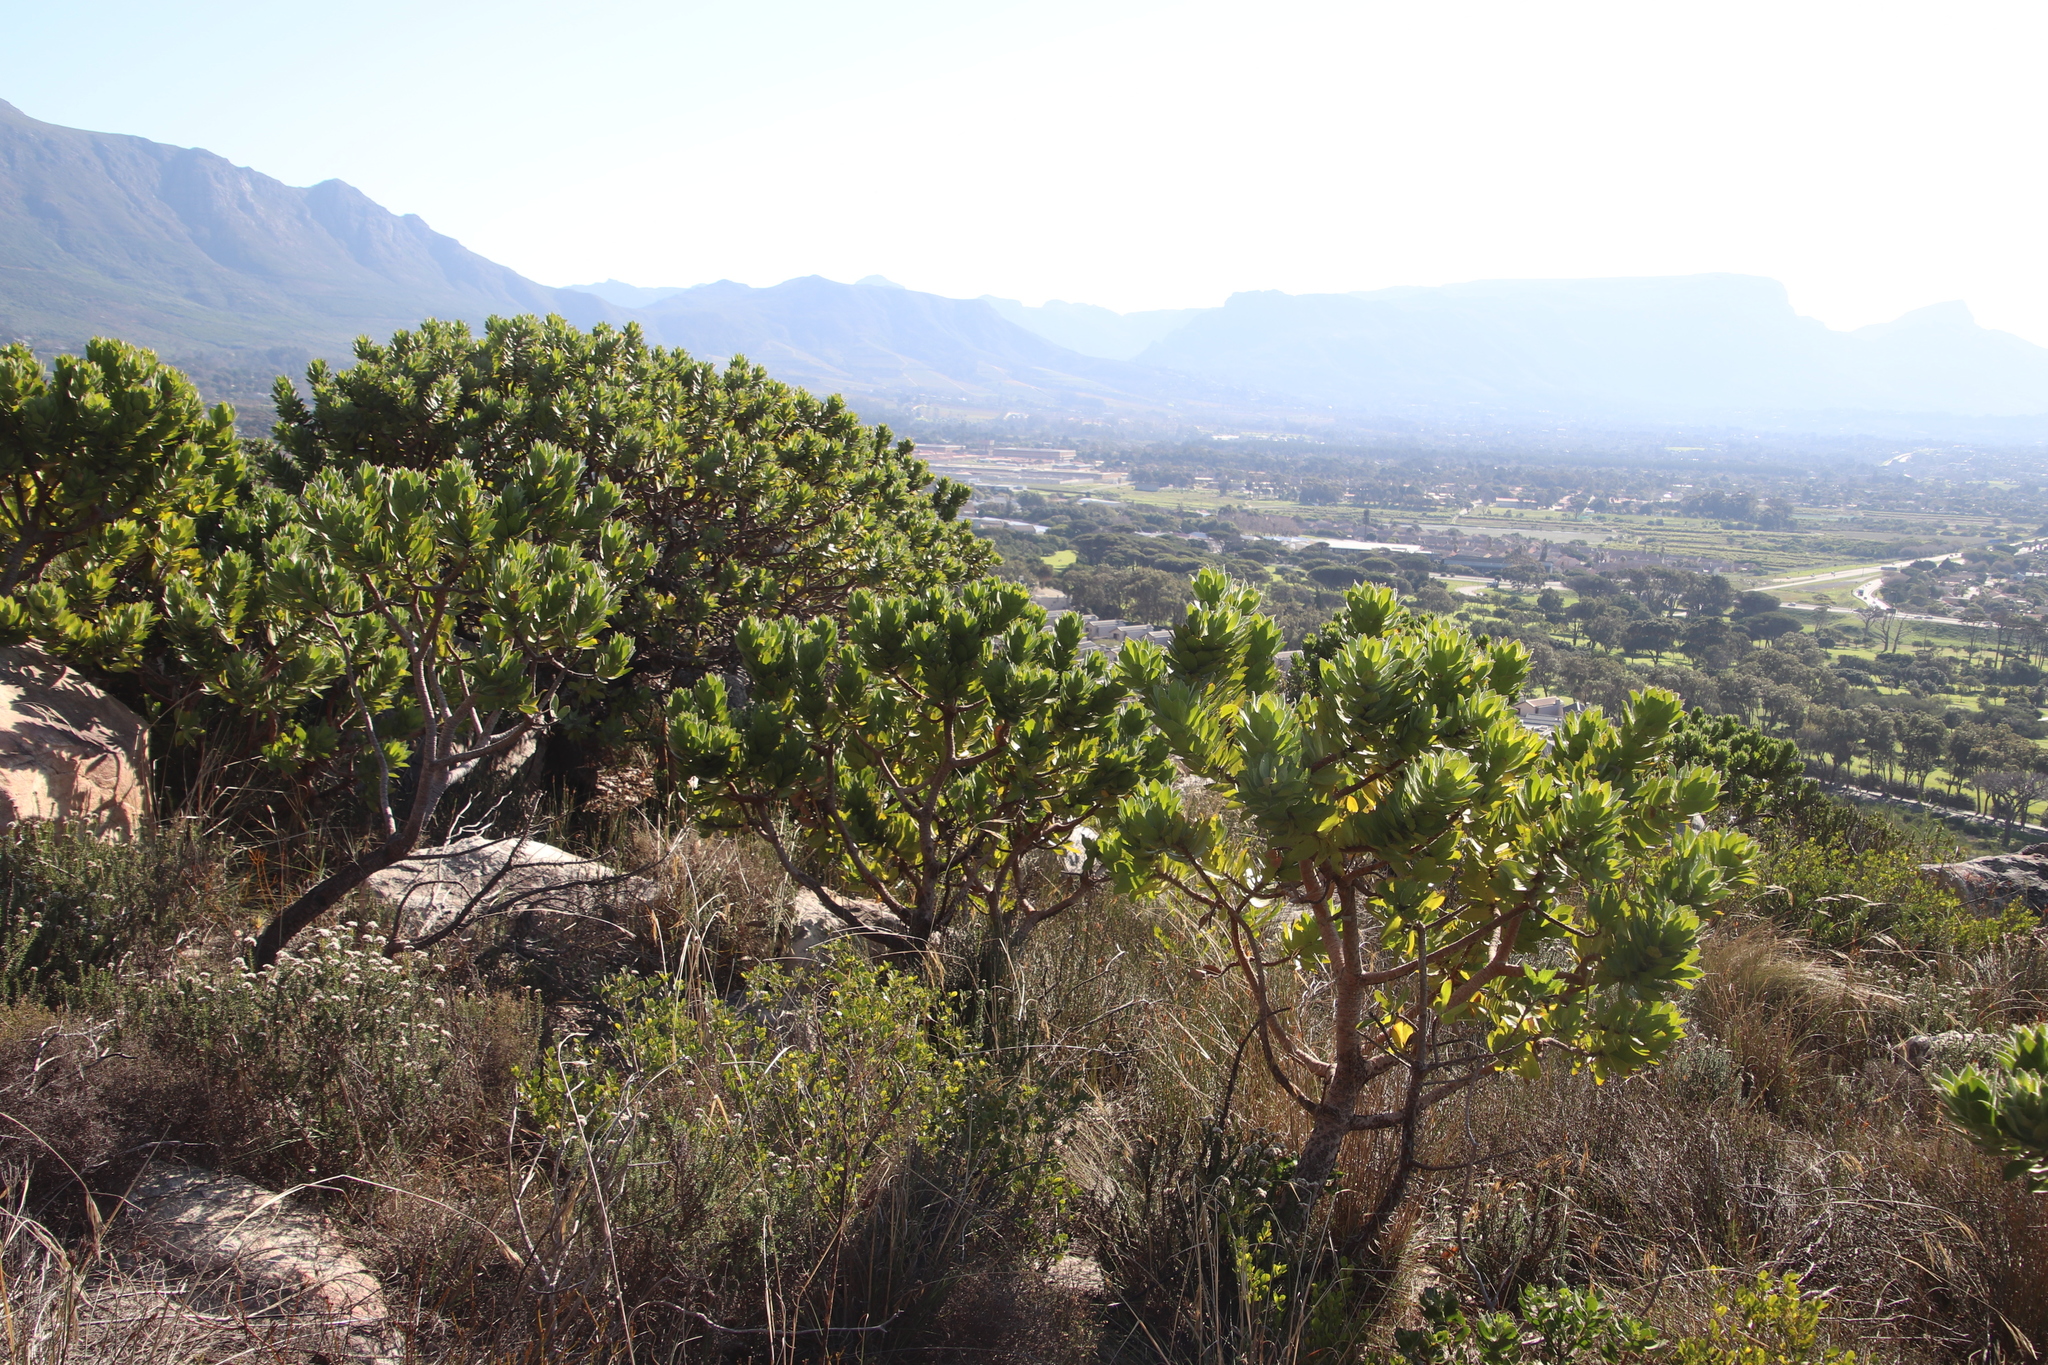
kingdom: Plantae
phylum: Tracheophyta
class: Magnoliopsida
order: Proteales
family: Proteaceae
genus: Leucospermum
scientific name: Leucospermum conocarpodendron
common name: Tree pincushion
